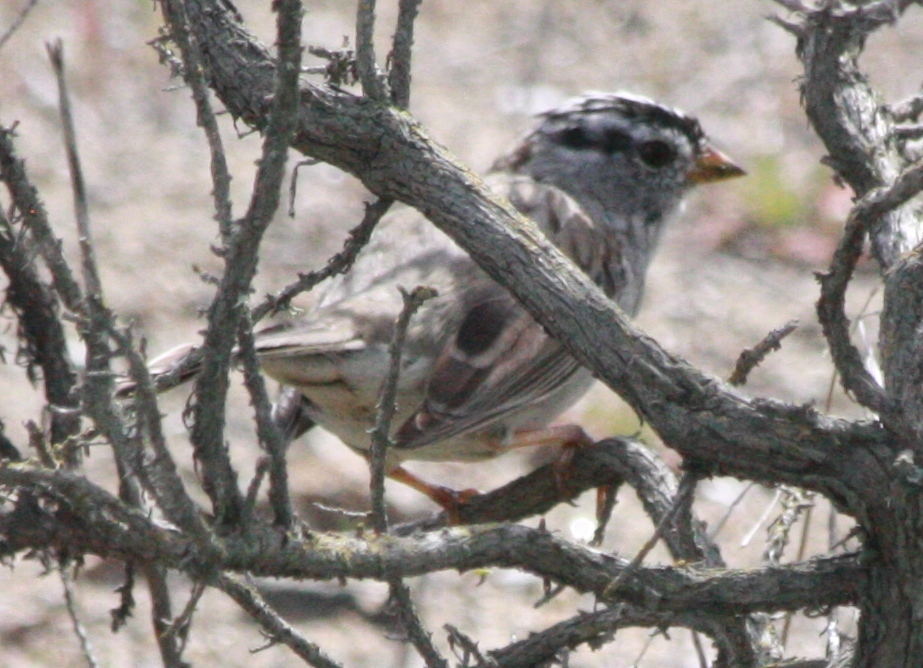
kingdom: Animalia
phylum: Chordata
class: Aves
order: Passeriformes
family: Passerellidae
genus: Zonotrichia
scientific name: Zonotrichia leucophrys
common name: White-crowned sparrow
